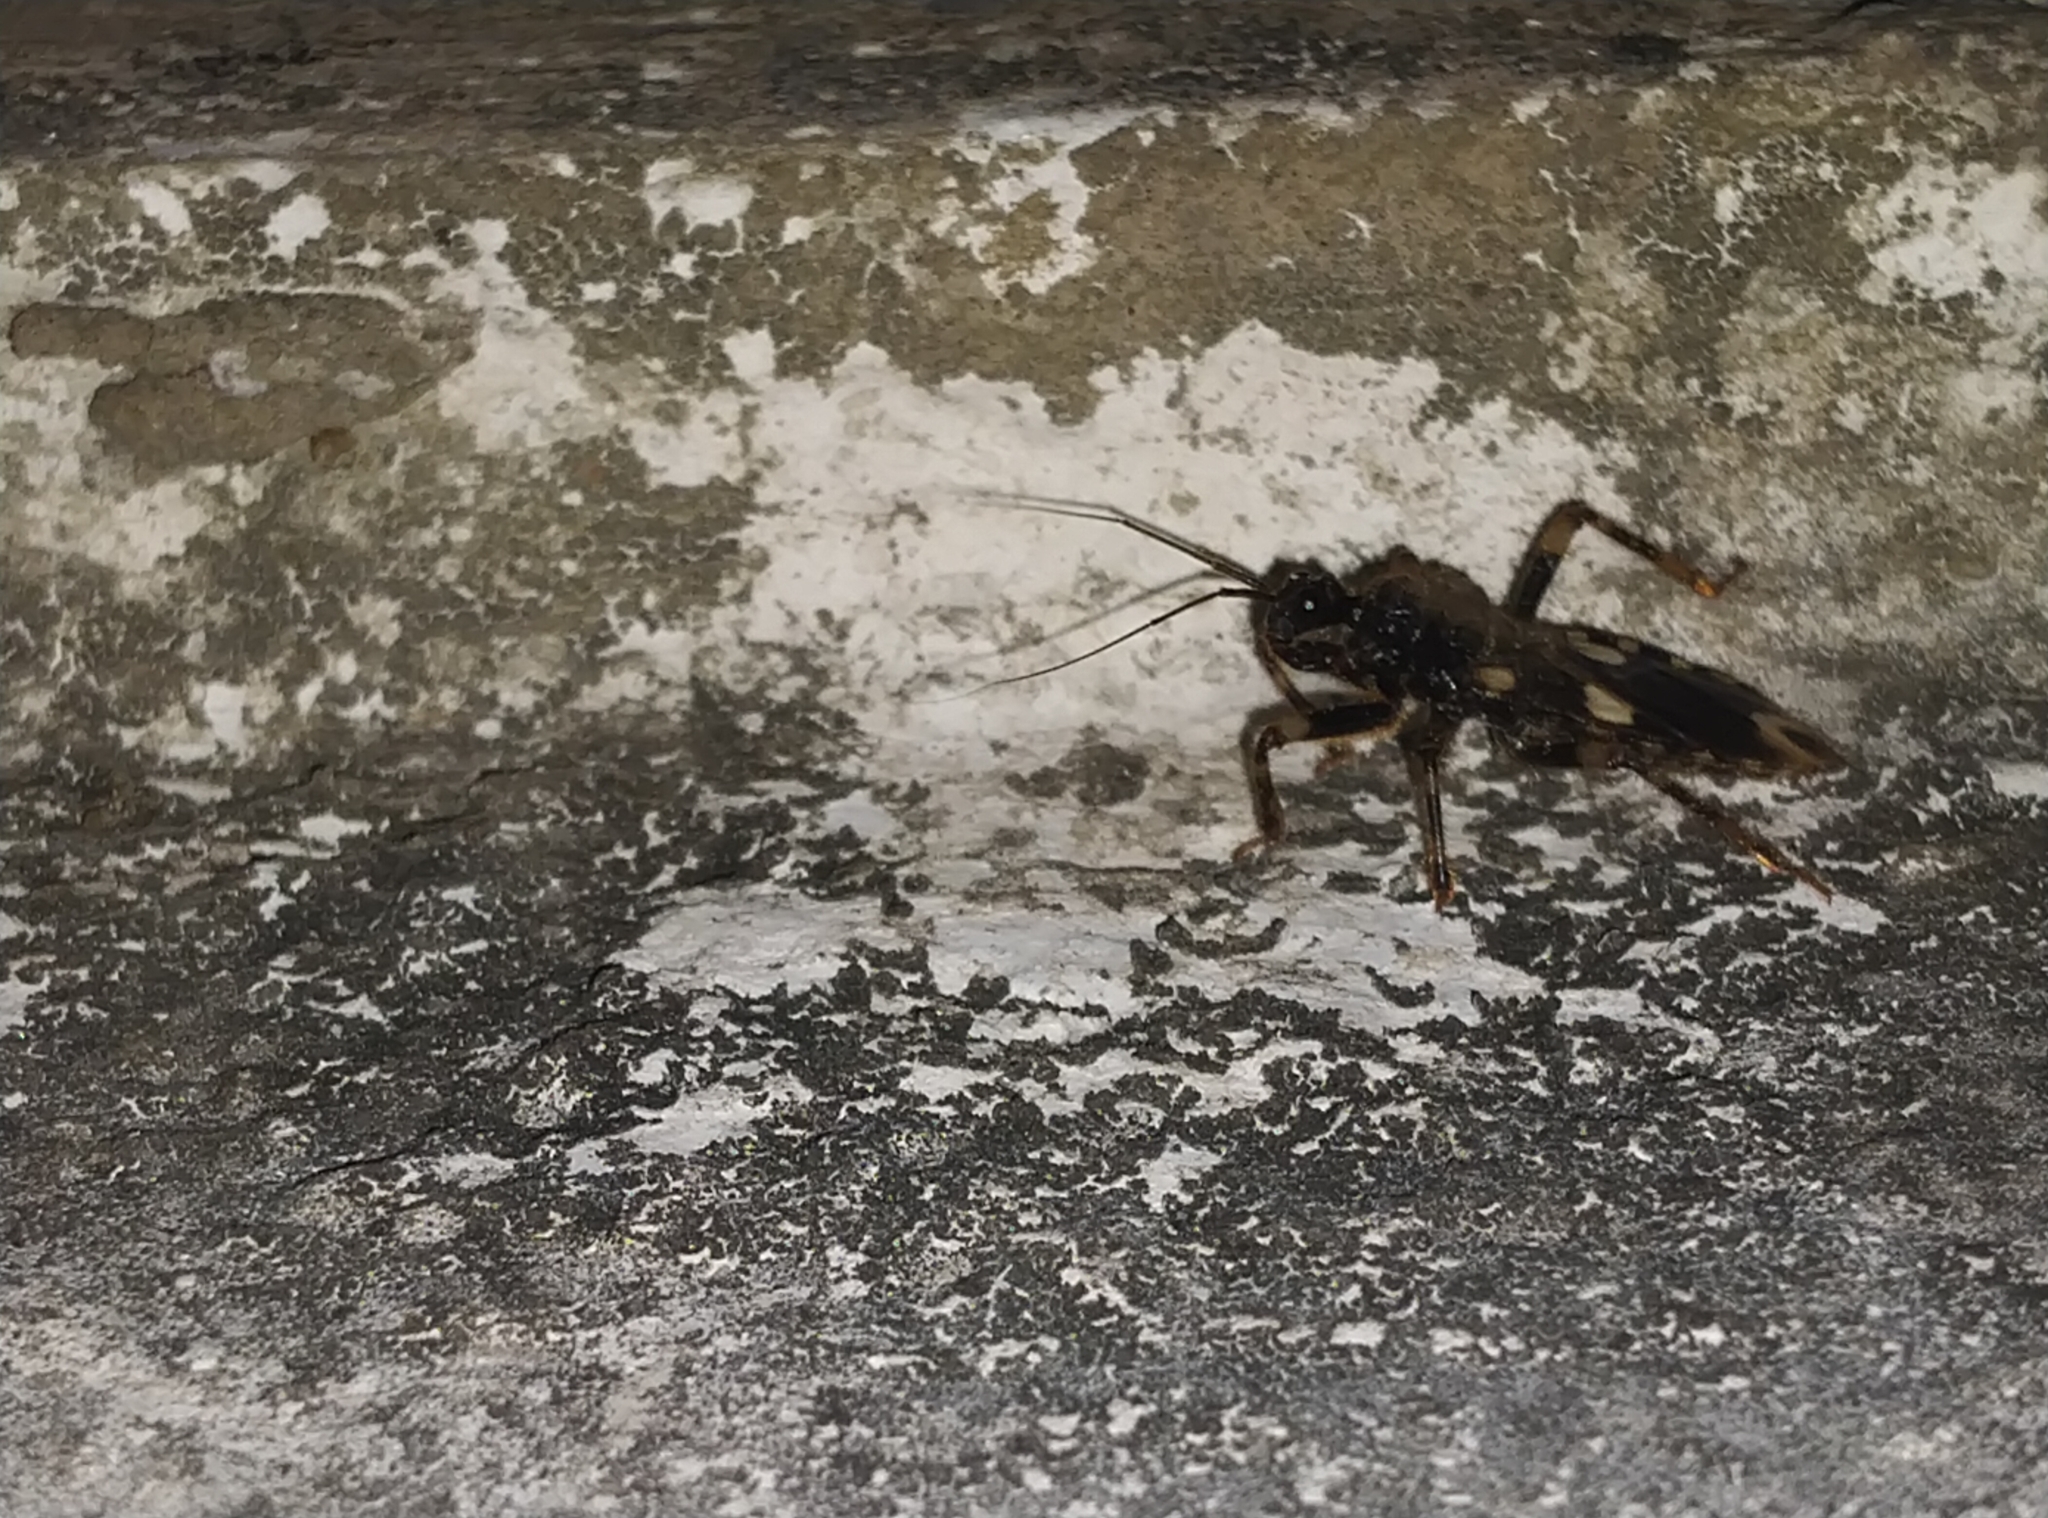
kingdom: Animalia
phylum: Arthropoda
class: Insecta
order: Hemiptera
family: Reduviidae
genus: Acanthaspis
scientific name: Acanthaspis siva
